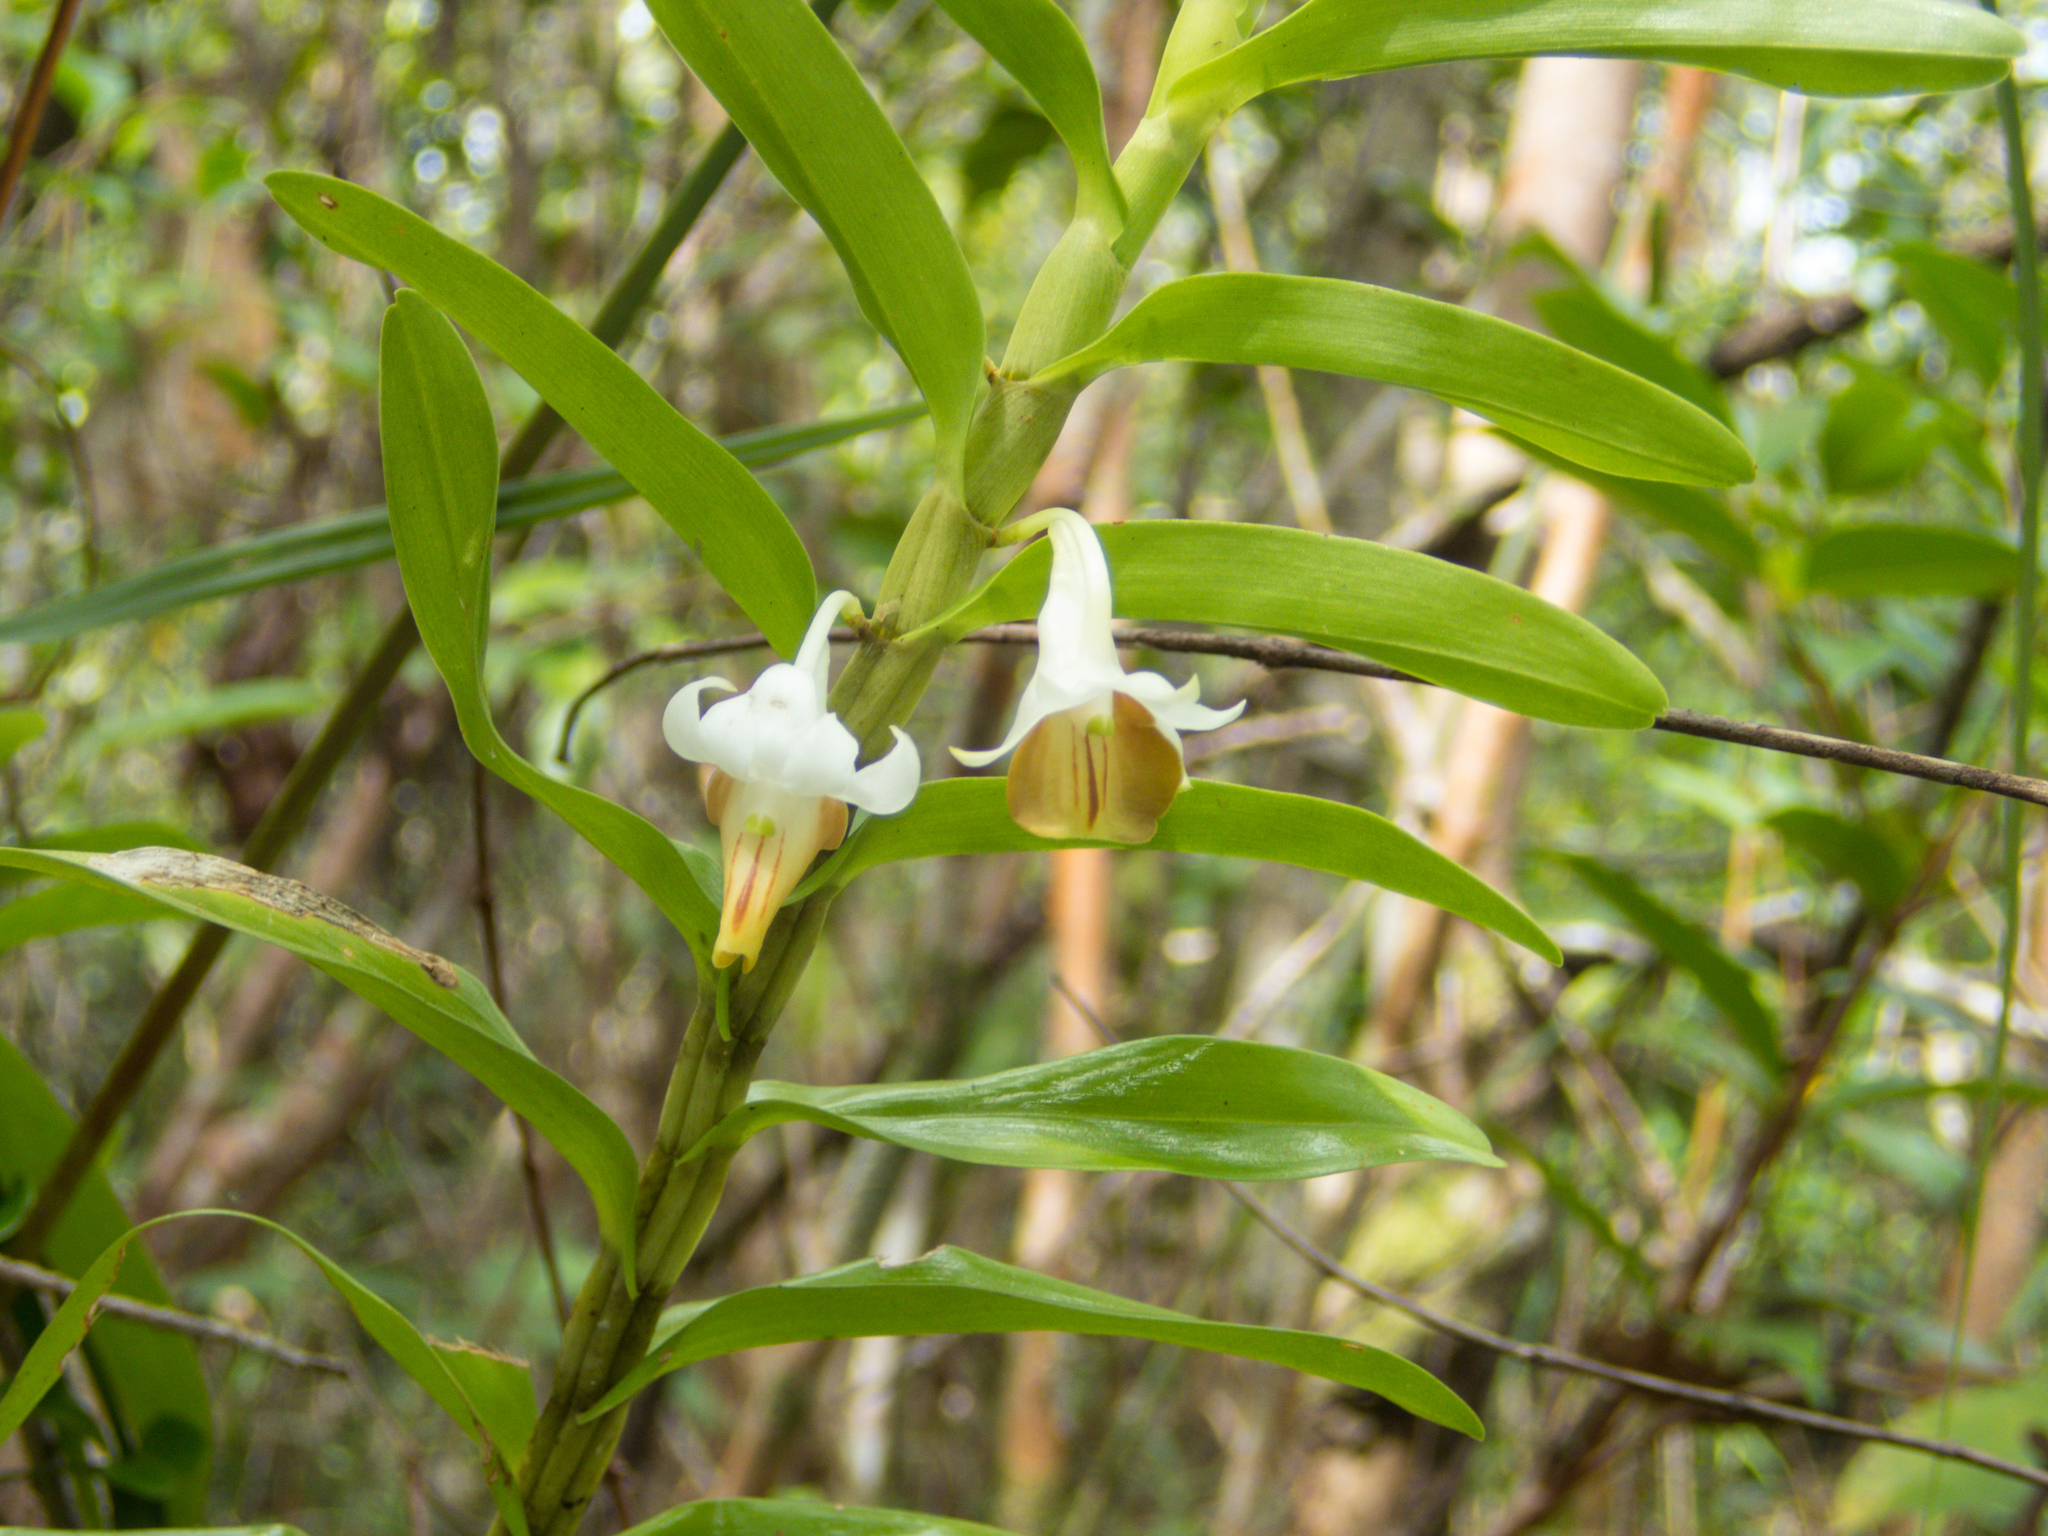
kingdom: Plantae
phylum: Tracheophyta
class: Liliopsida
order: Asparagales
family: Orchidaceae
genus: Dendrobium
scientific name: Dendrobium ellipsophyllum
